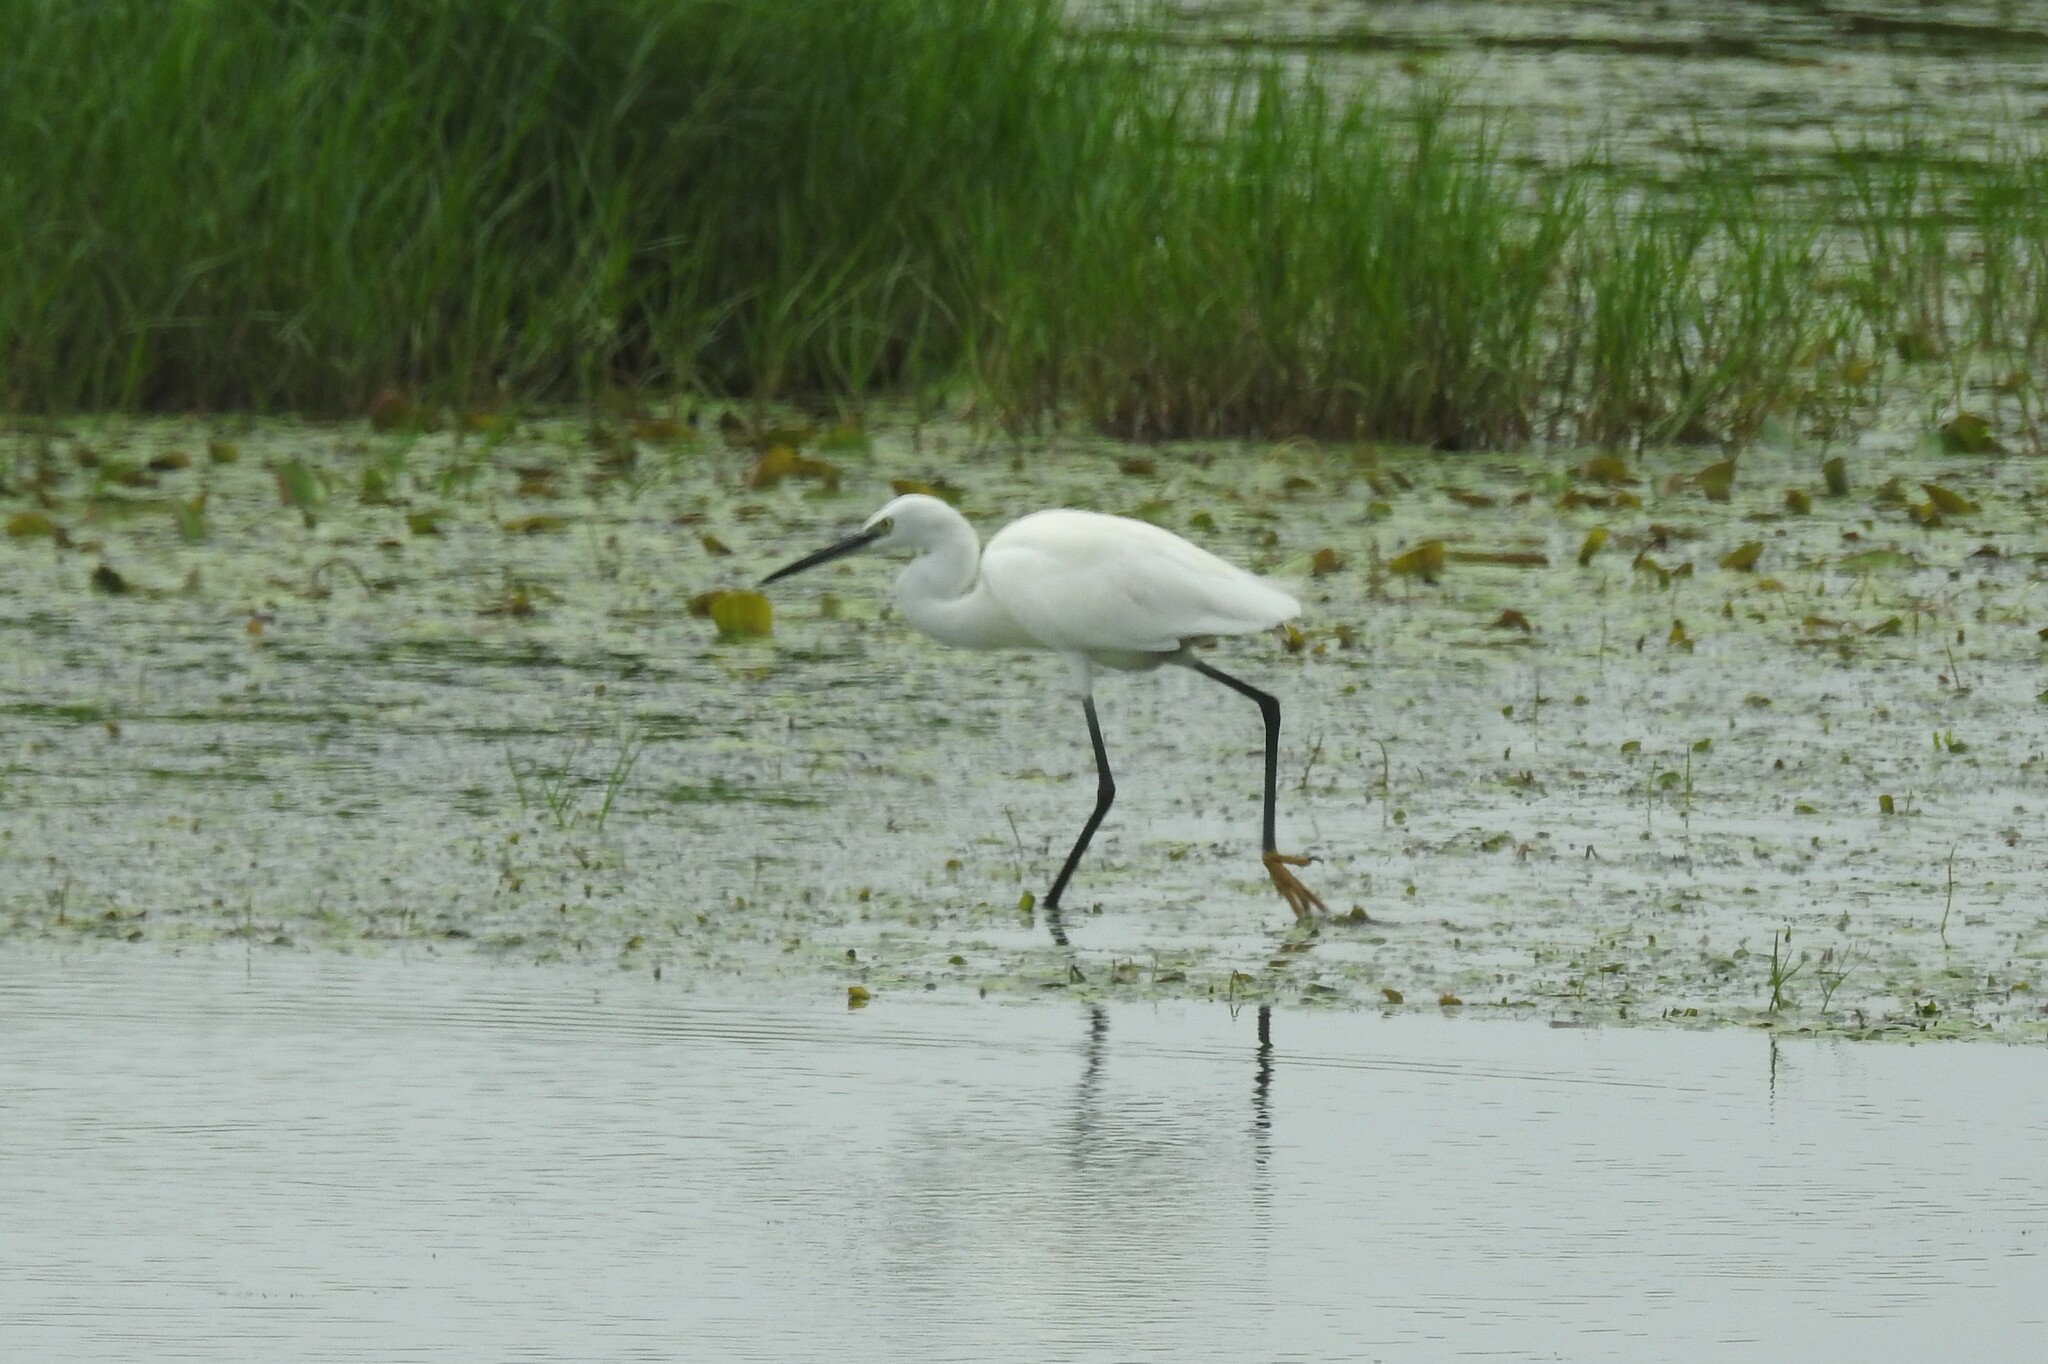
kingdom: Animalia
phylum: Chordata
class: Aves
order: Pelecaniformes
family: Ardeidae
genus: Egretta
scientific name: Egretta garzetta
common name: Little egret
